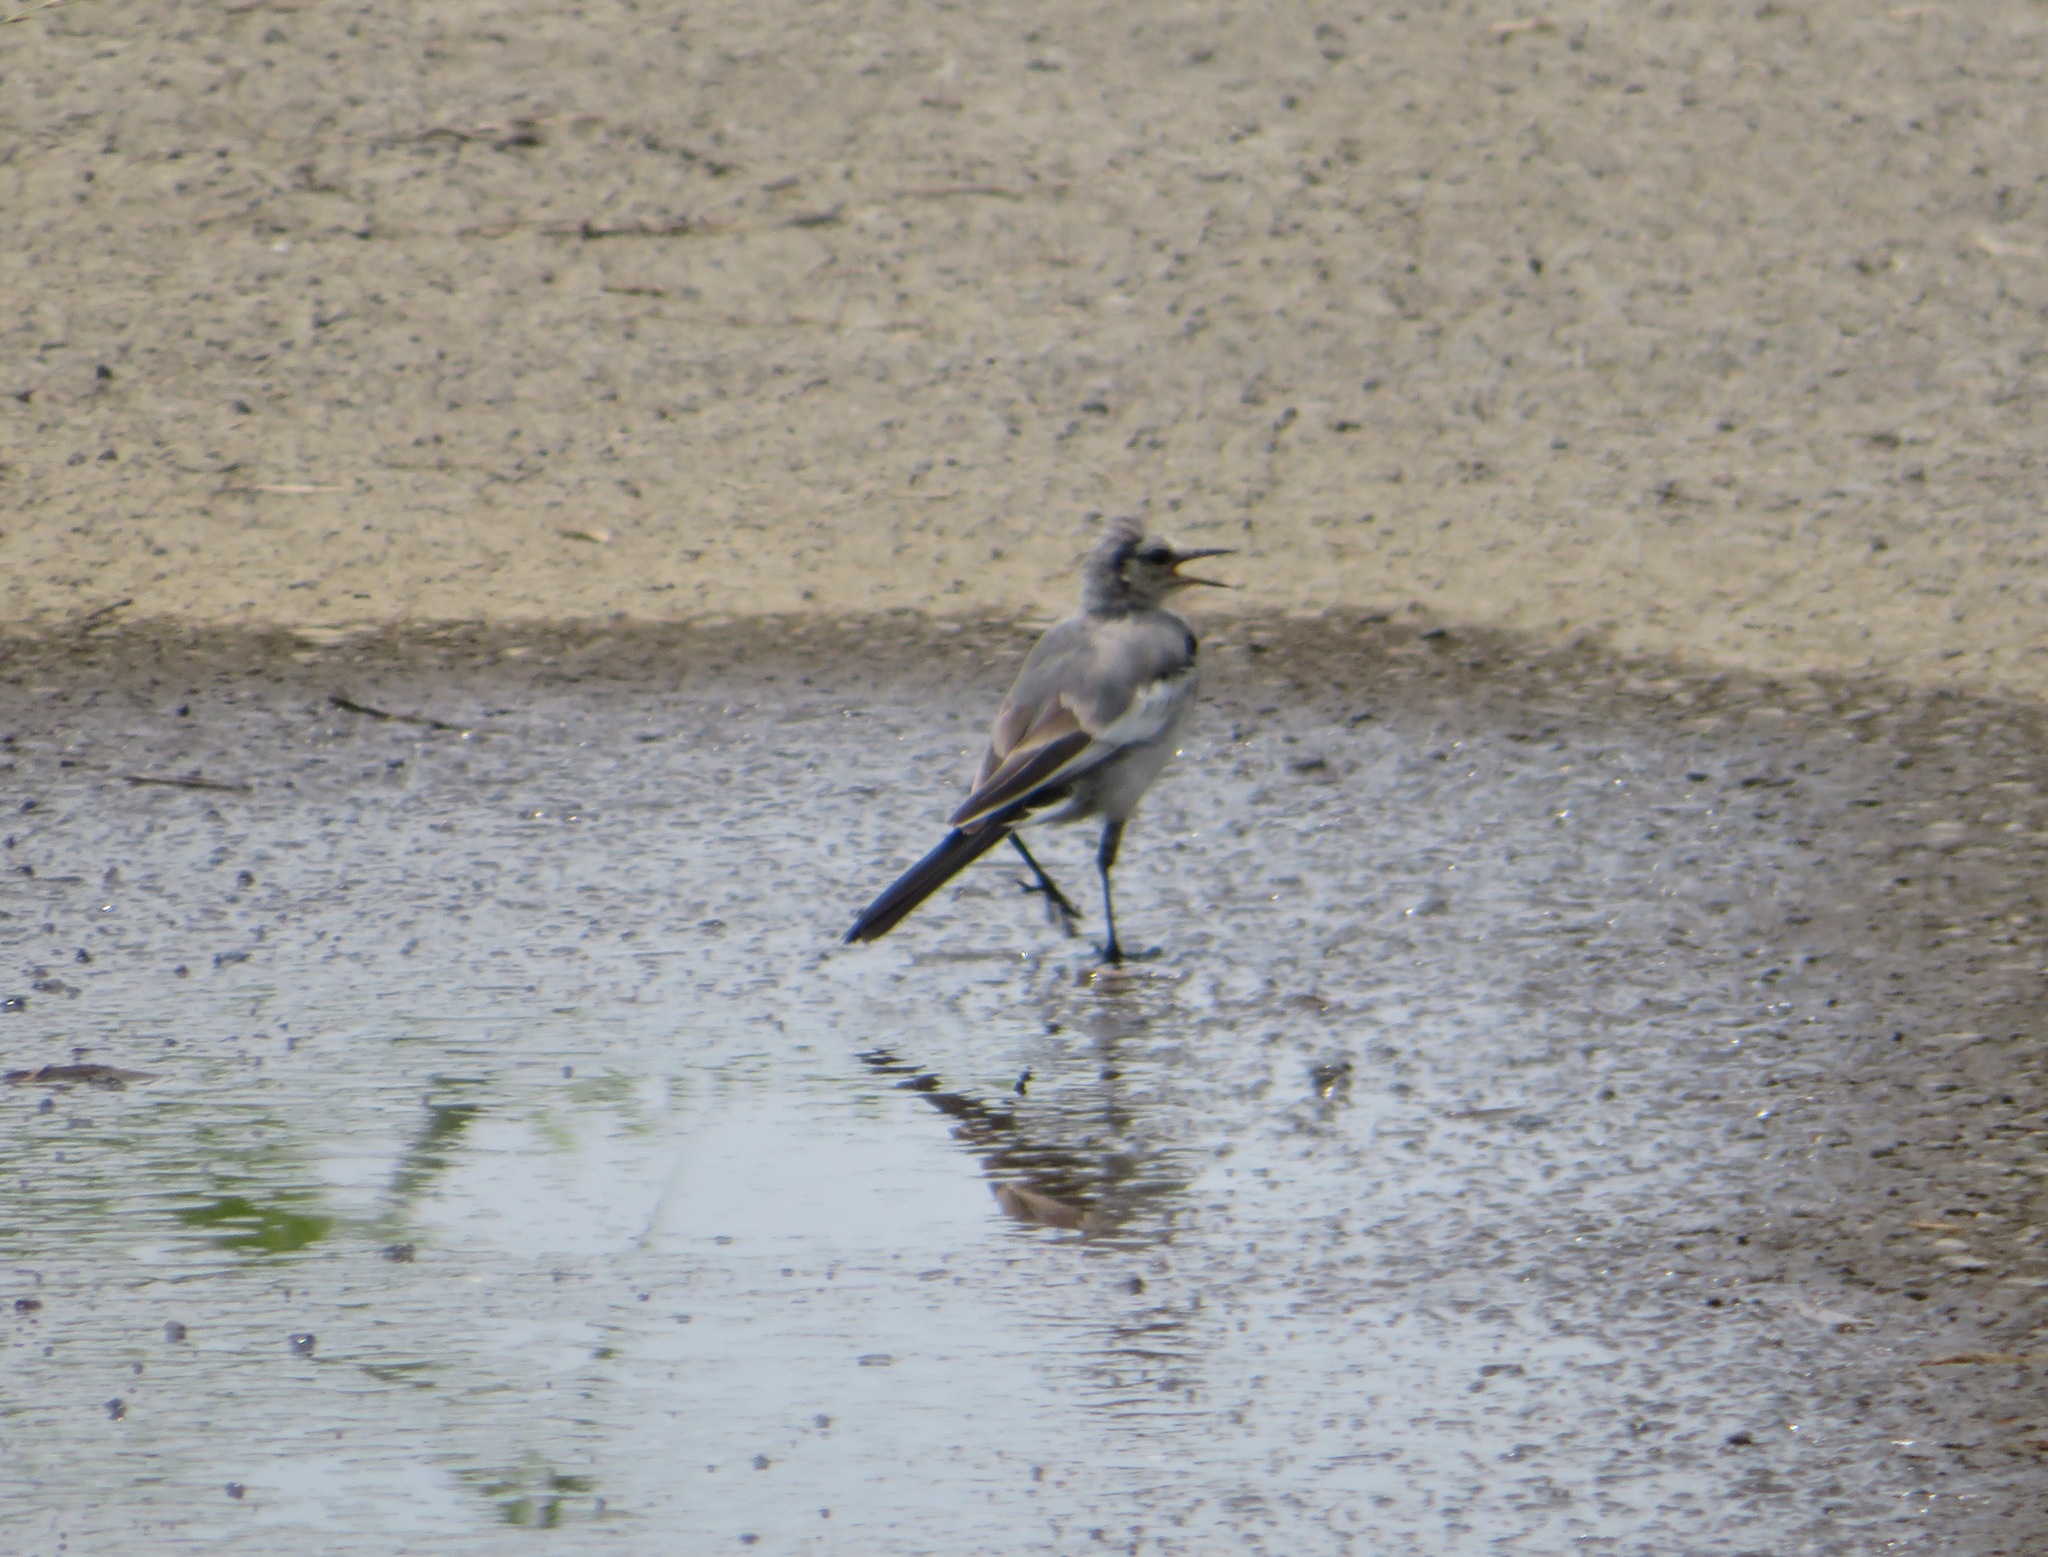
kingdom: Animalia
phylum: Chordata
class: Aves
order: Passeriformes
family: Motacillidae
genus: Motacilla
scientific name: Motacilla alba
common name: White wagtail
